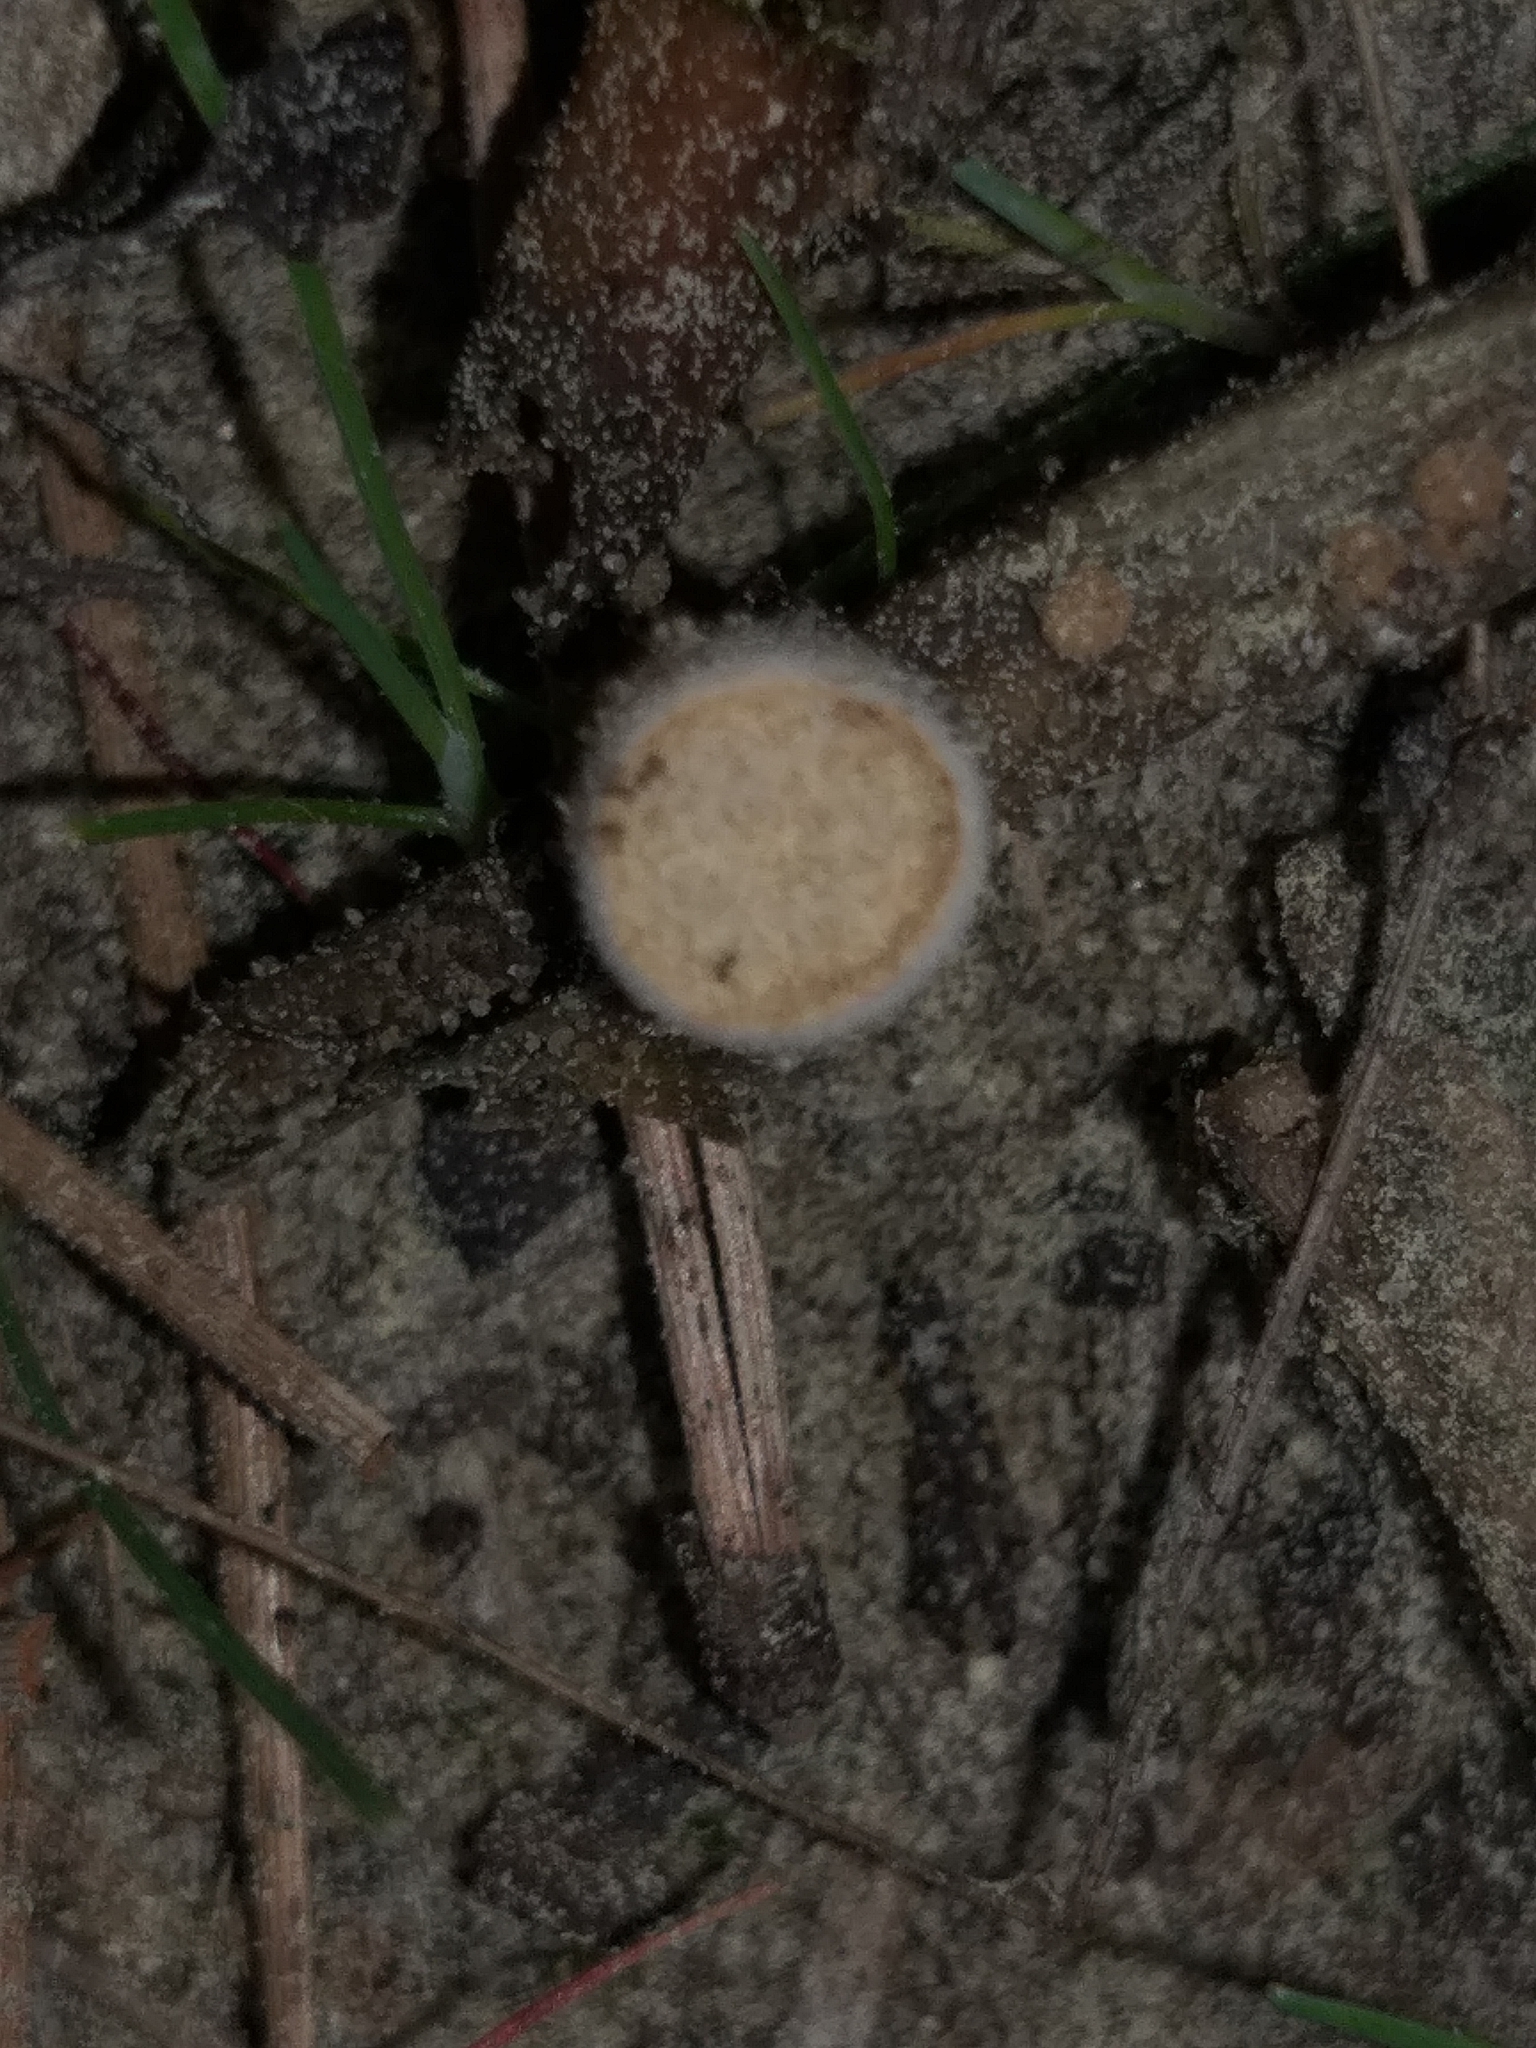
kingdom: Fungi
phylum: Basidiomycota
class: Agaricomycetes
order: Agaricales
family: Agaricaceae
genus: Nidula
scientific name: Nidula niveotomentosa
